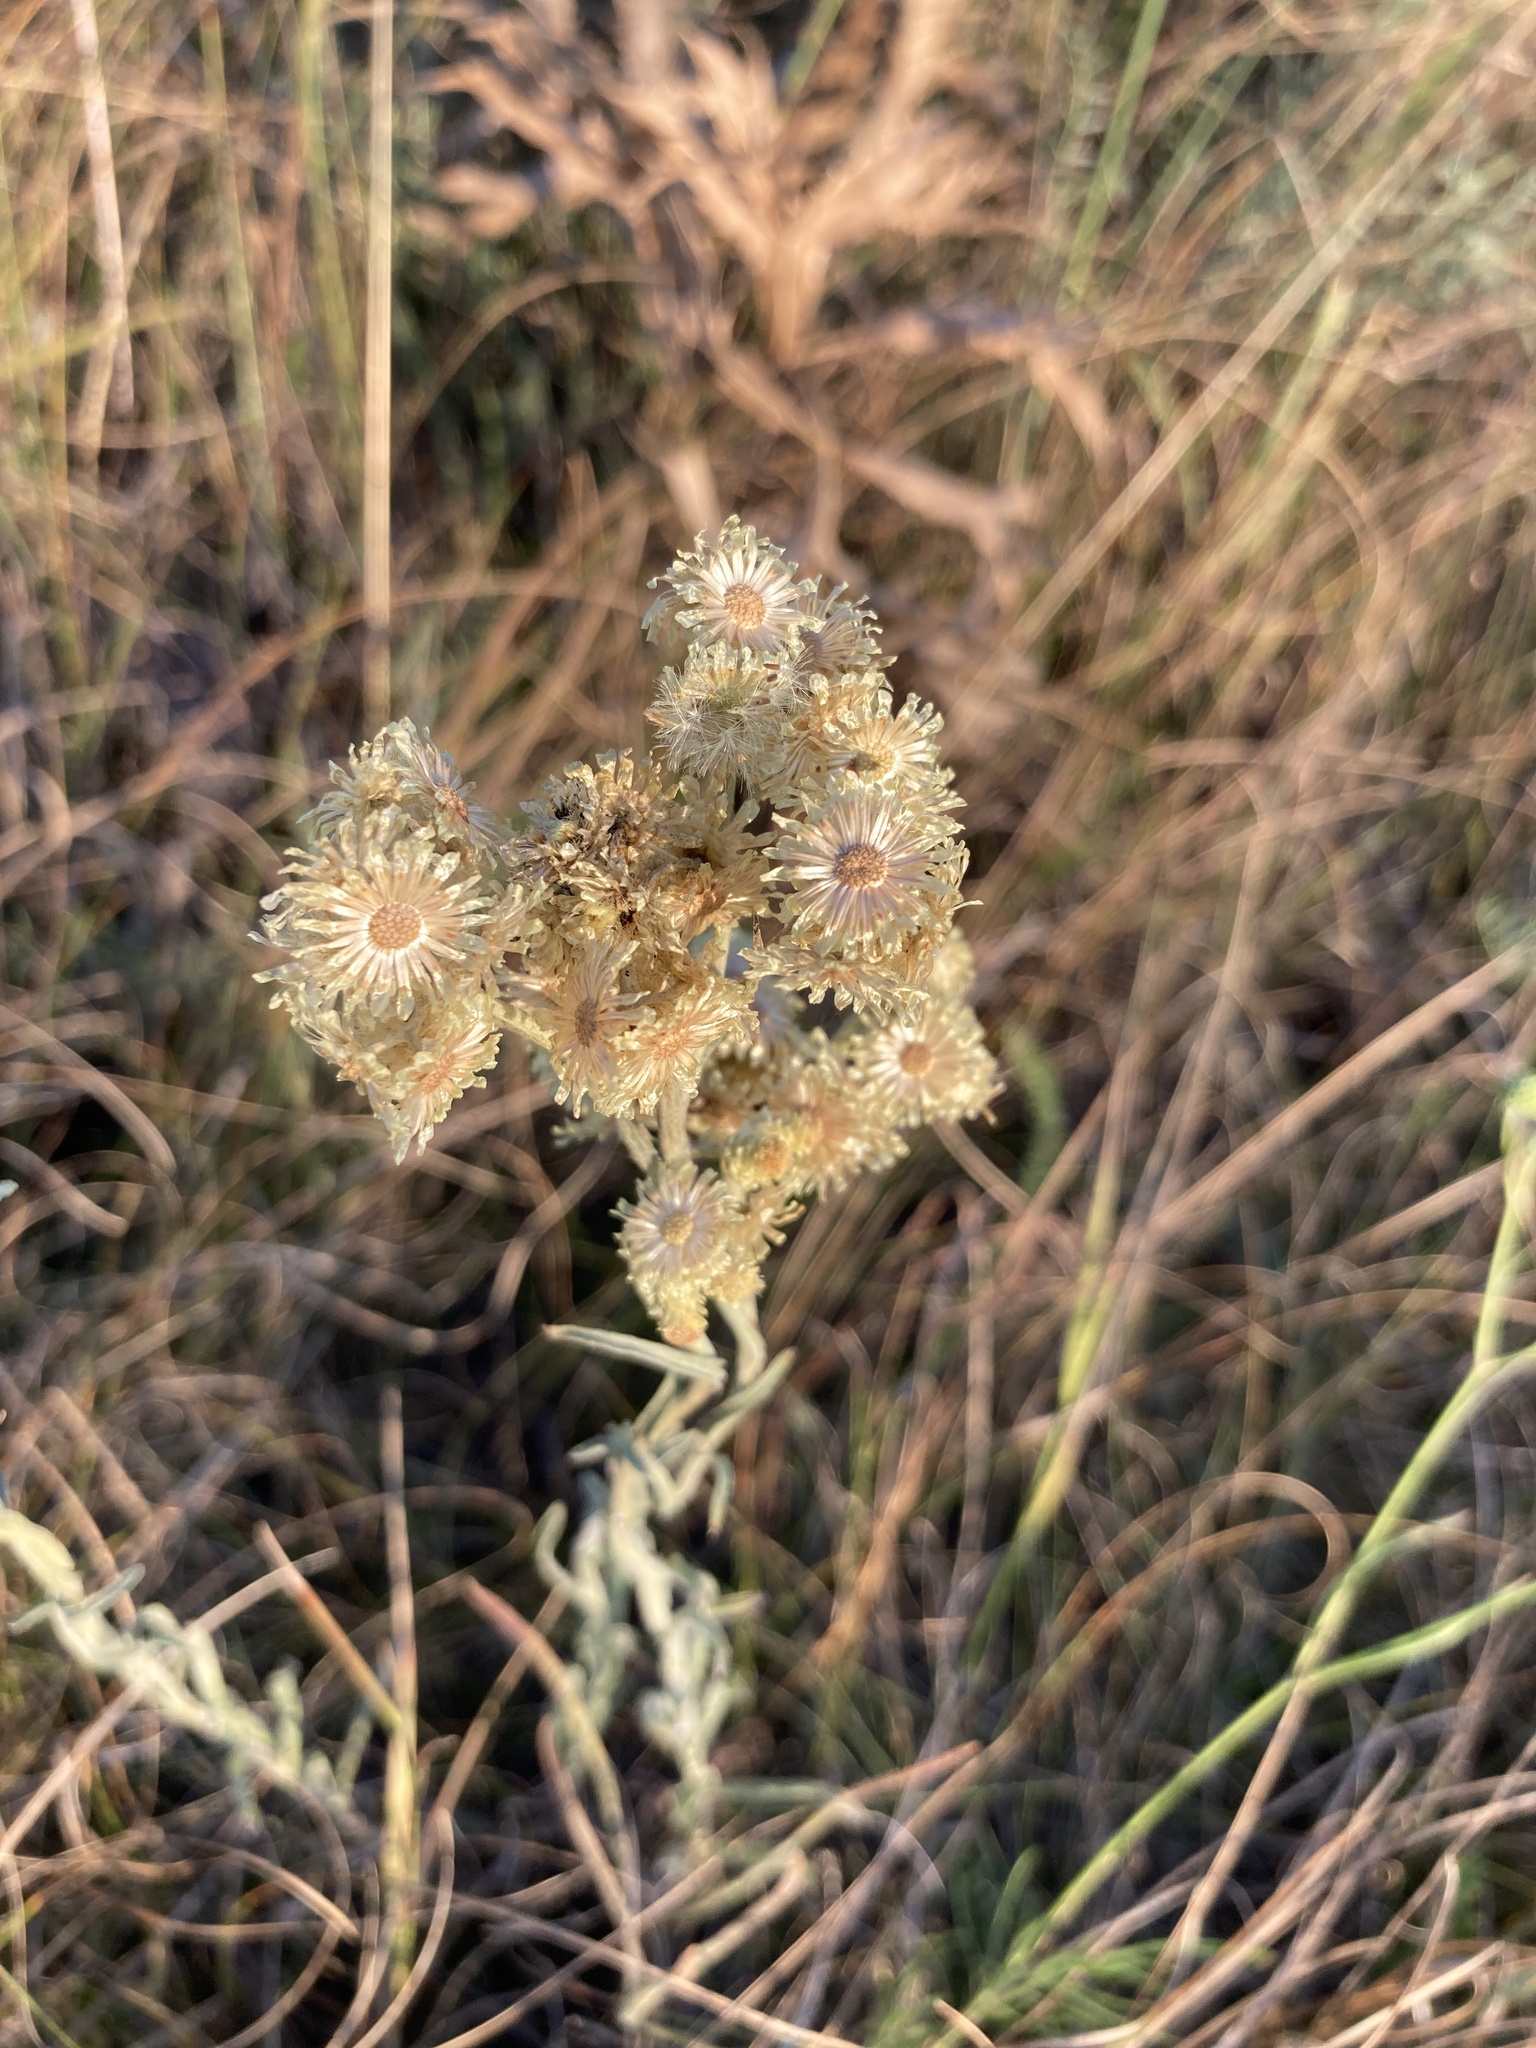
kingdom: Plantae
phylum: Tracheophyta
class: Magnoliopsida
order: Asterales
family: Asteraceae
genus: Helichrysum
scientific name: Helichrysum arenarium
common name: Strawflower
